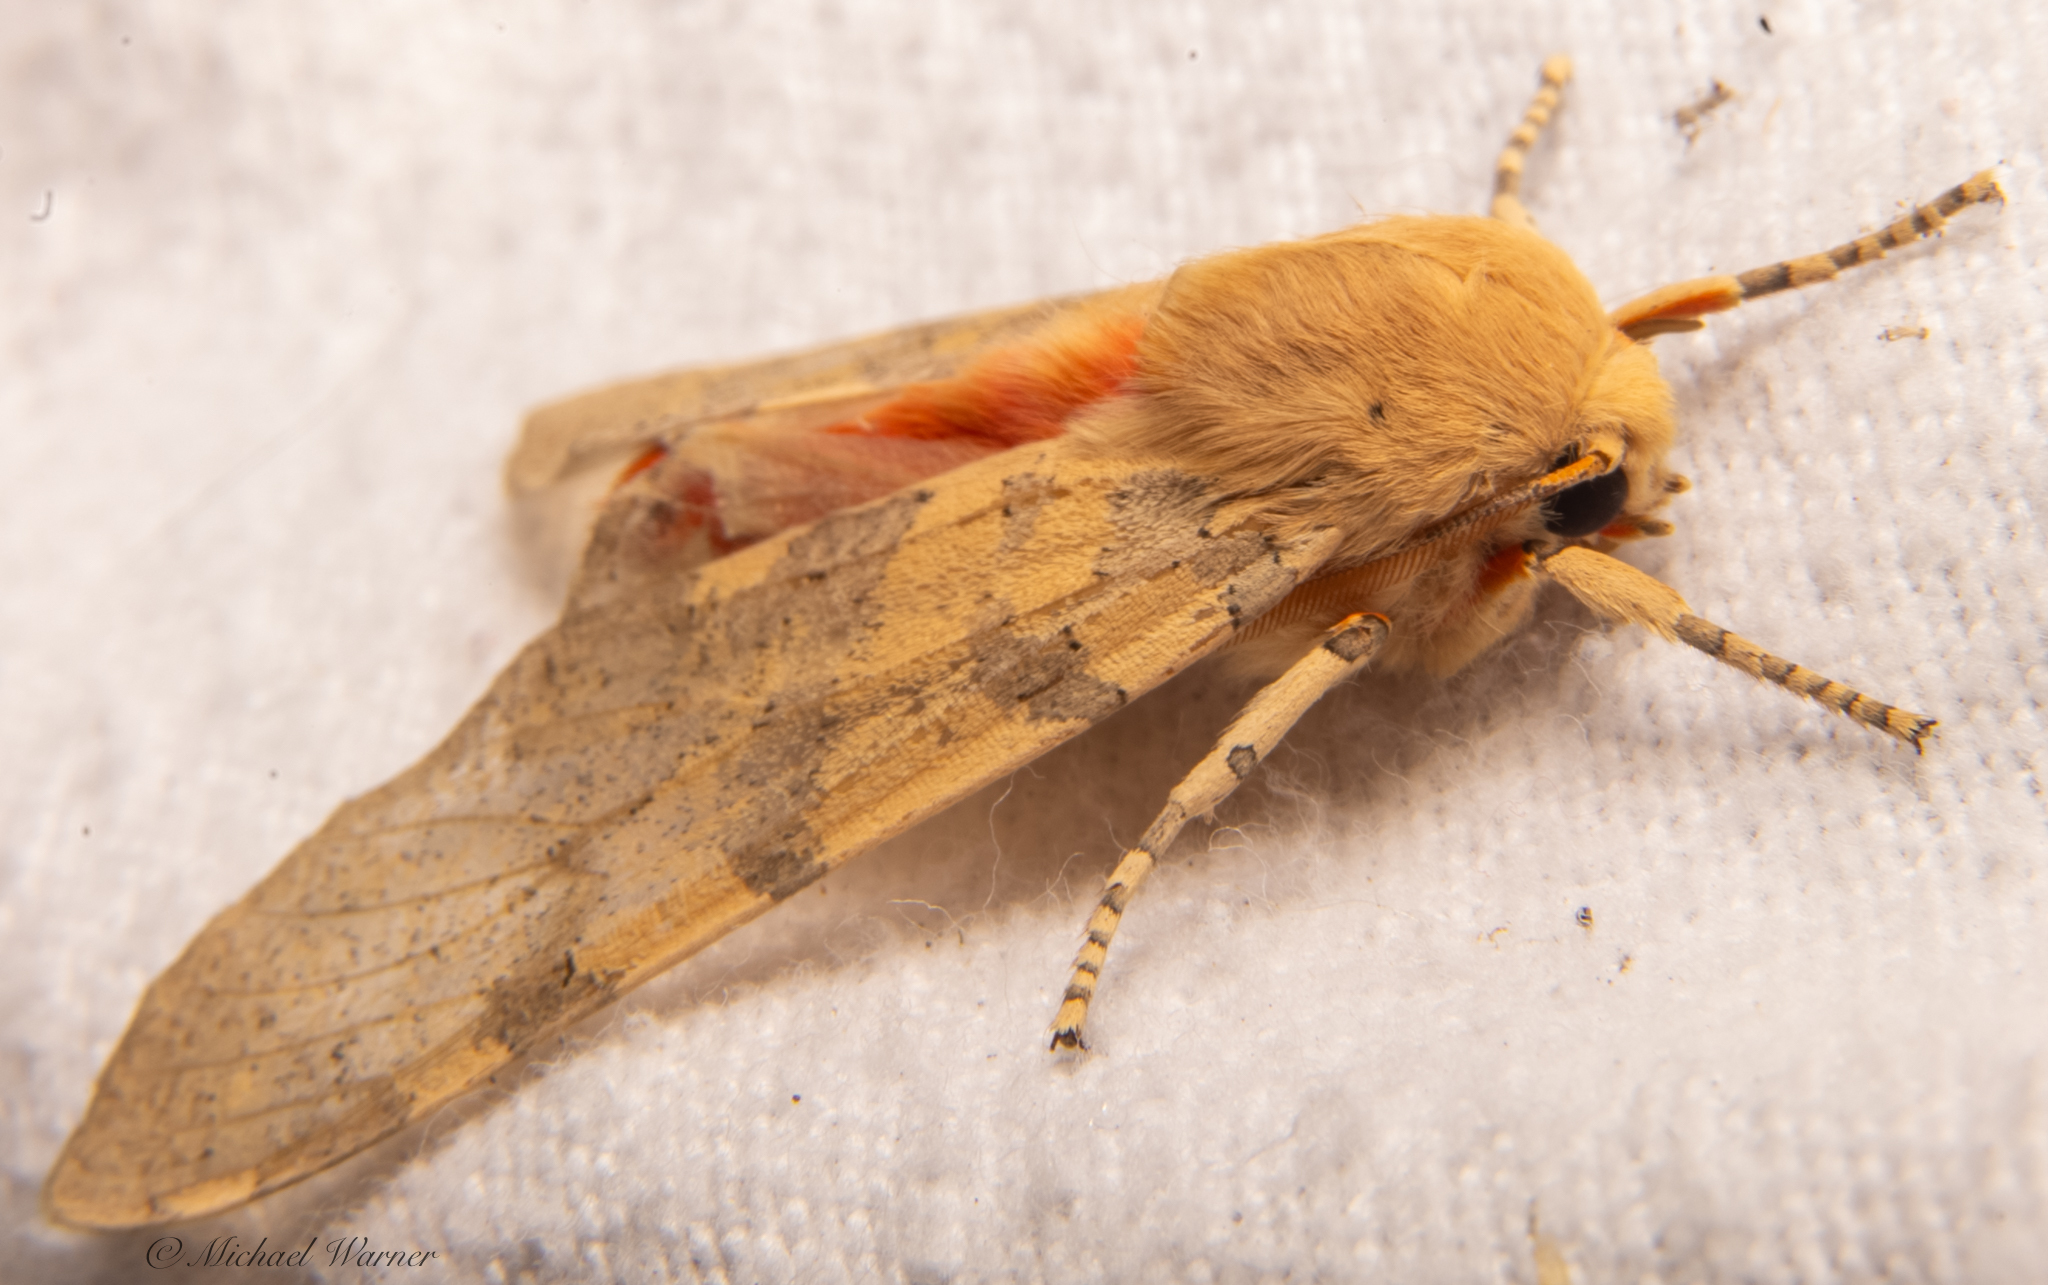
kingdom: Animalia
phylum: Arthropoda
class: Insecta
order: Lepidoptera
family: Erebidae
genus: Hemihyalea
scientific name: Hemihyalea edwardsii
